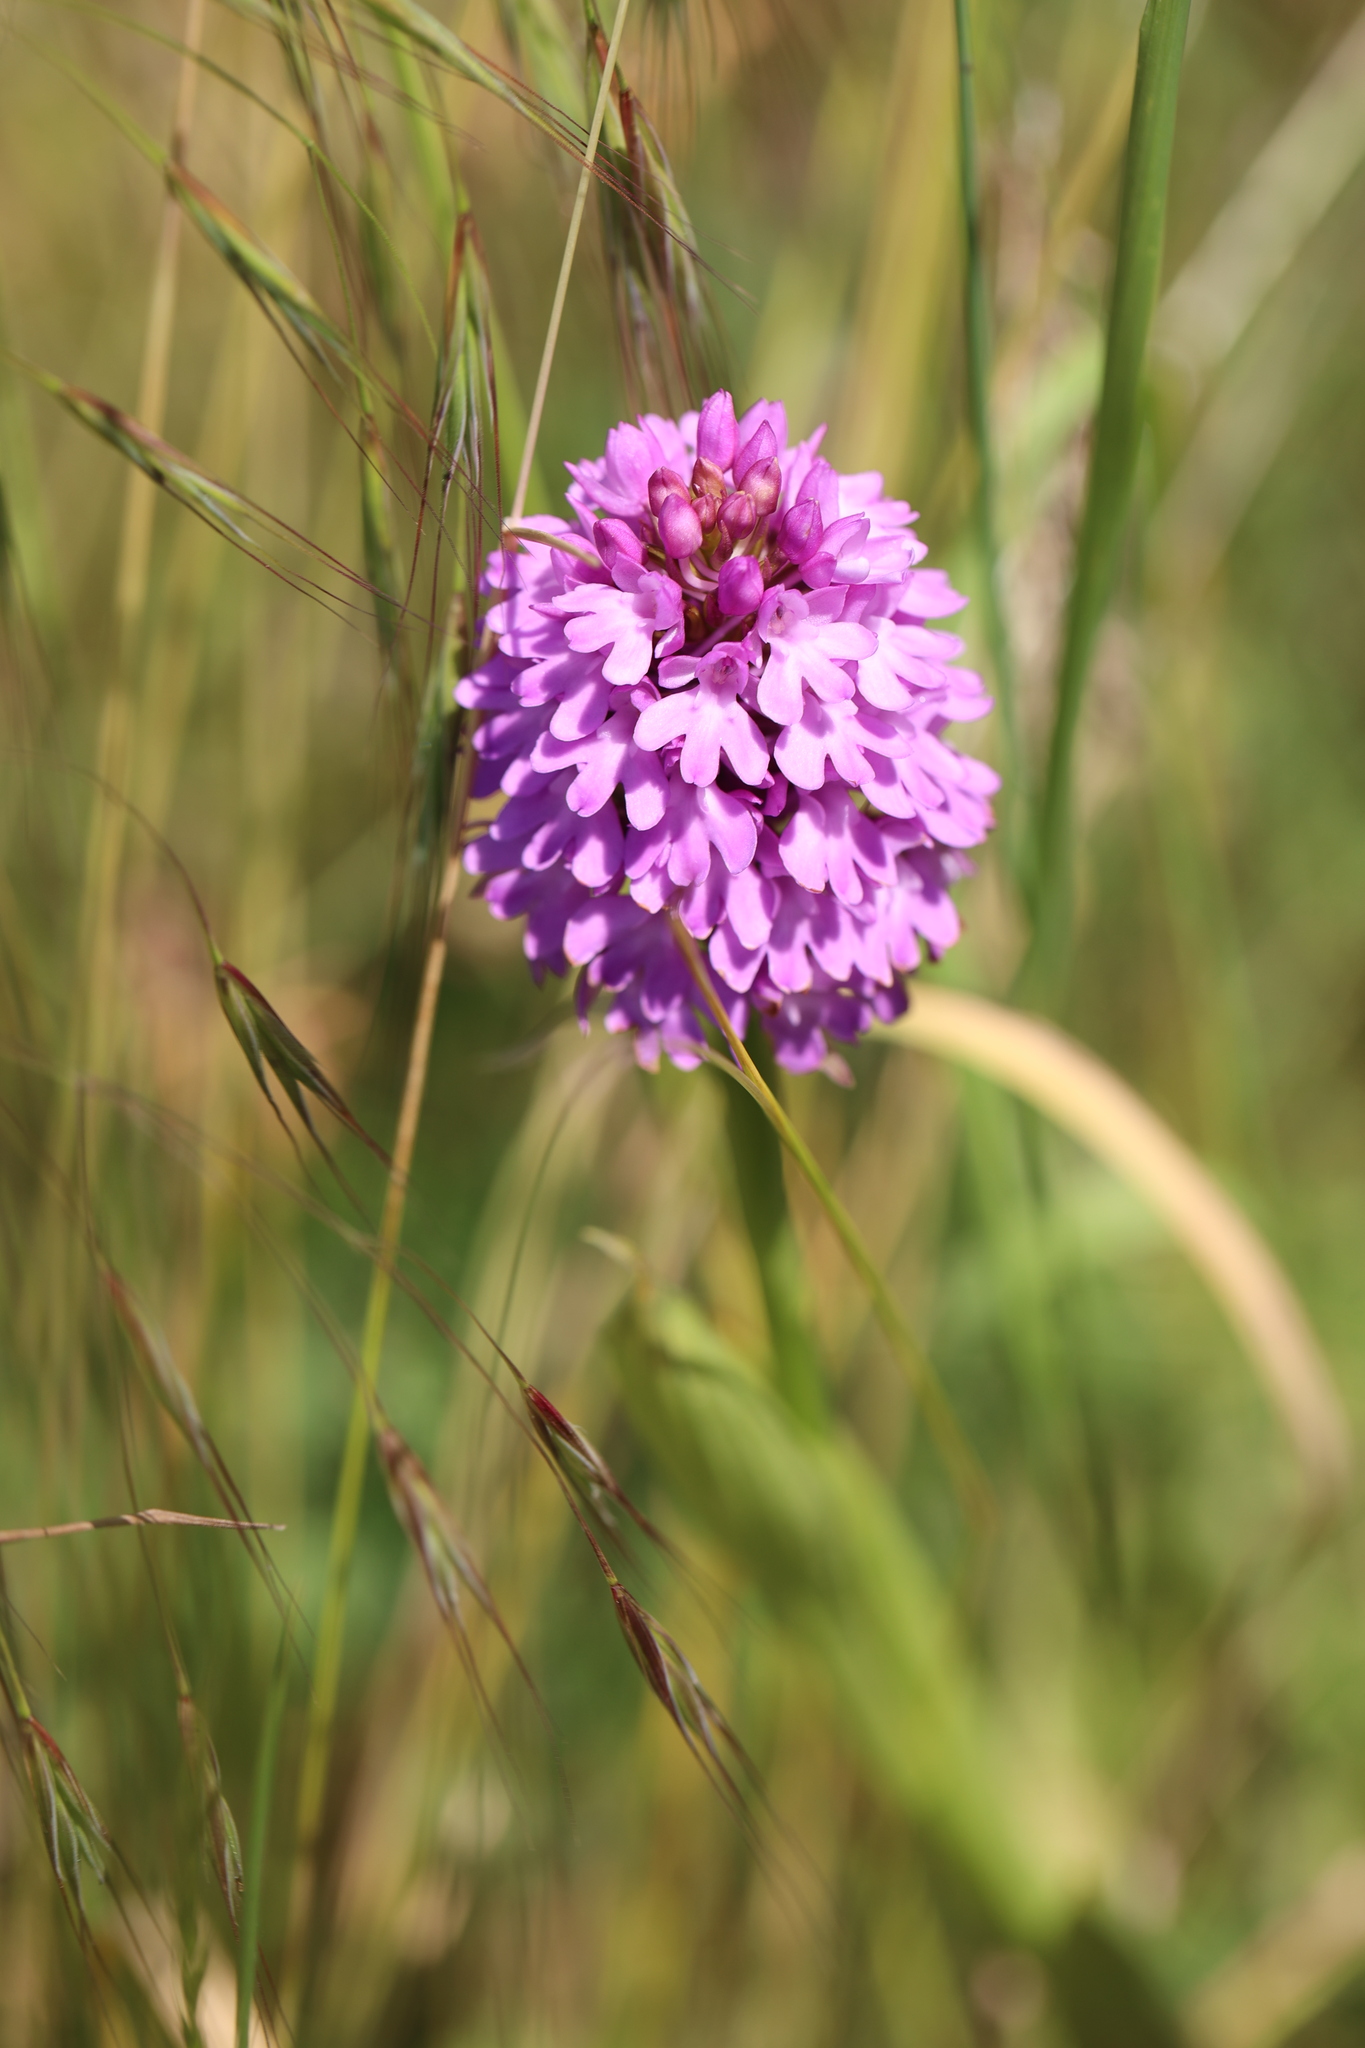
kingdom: Plantae
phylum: Tracheophyta
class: Liliopsida
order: Asparagales
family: Orchidaceae
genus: Anacamptis
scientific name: Anacamptis pyramidalis
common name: Pyramidal orchid
